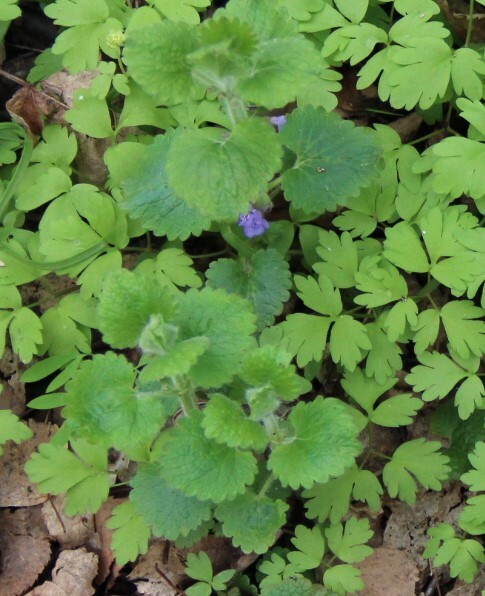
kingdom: Plantae
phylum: Tracheophyta
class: Magnoliopsida
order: Lamiales
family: Lamiaceae
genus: Glechoma
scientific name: Glechoma hederacea
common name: Ground ivy
